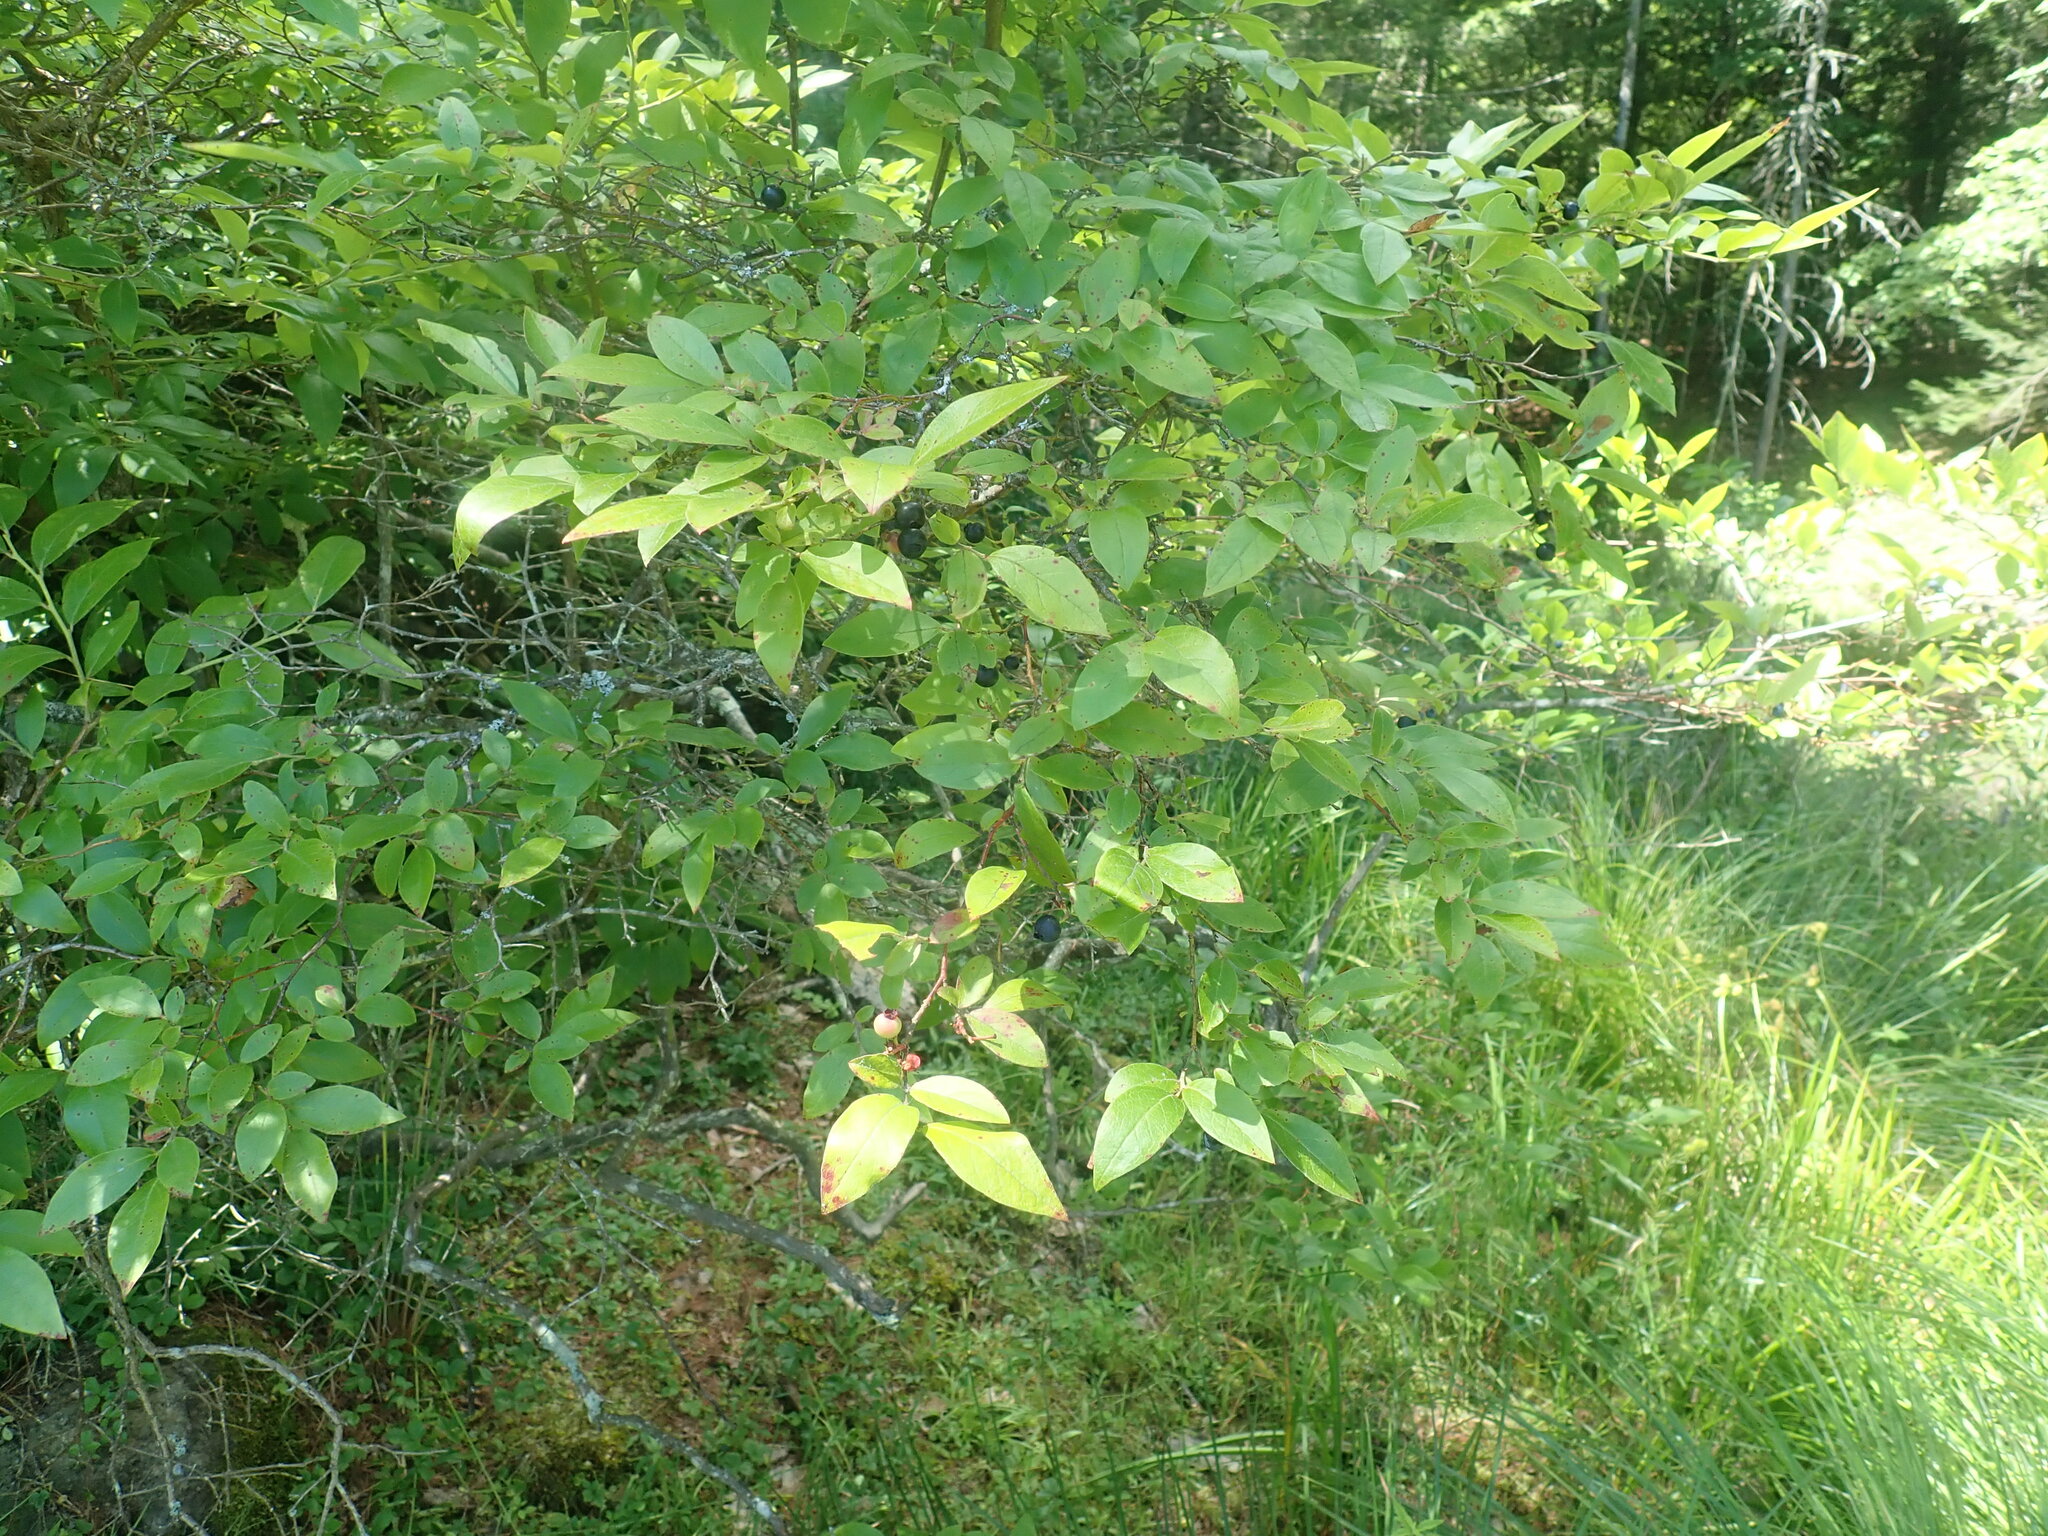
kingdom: Plantae
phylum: Tracheophyta
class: Magnoliopsida
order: Ericales
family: Ericaceae
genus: Vaccinium
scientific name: Vaccinium corymbosum
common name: Blueberry
